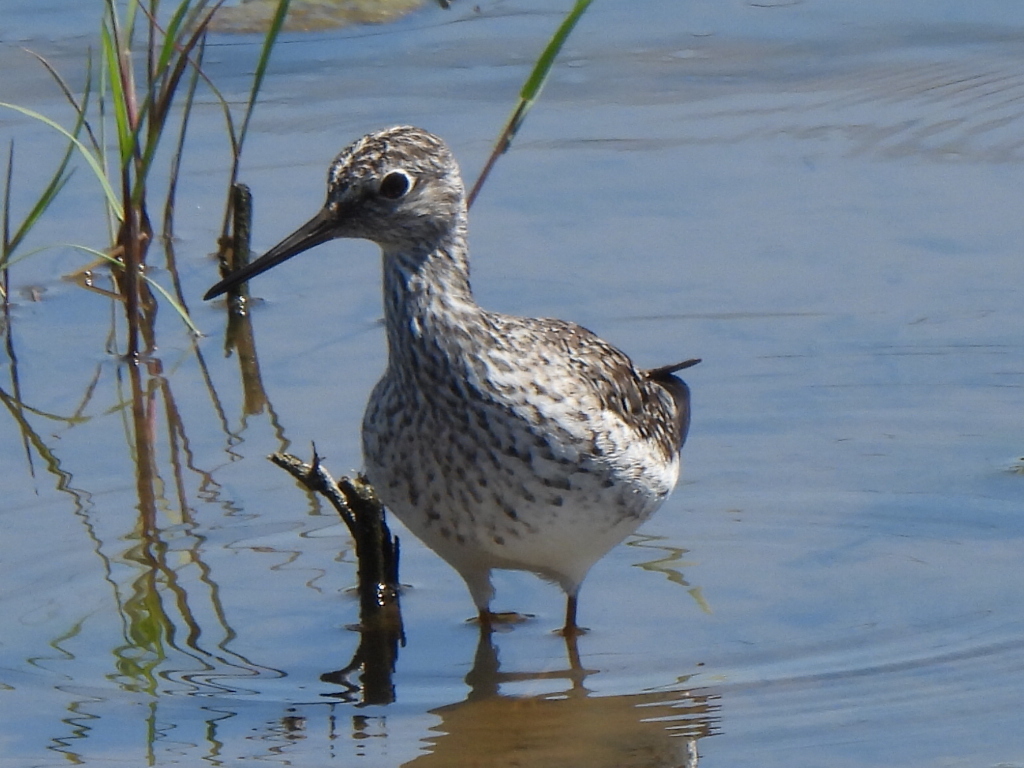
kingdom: Animalia
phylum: Chordata
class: Aves
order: Charadriiformes
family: Scolopacidae
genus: Tringa
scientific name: Tringa flavipes
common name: Lesser yellowlegs
